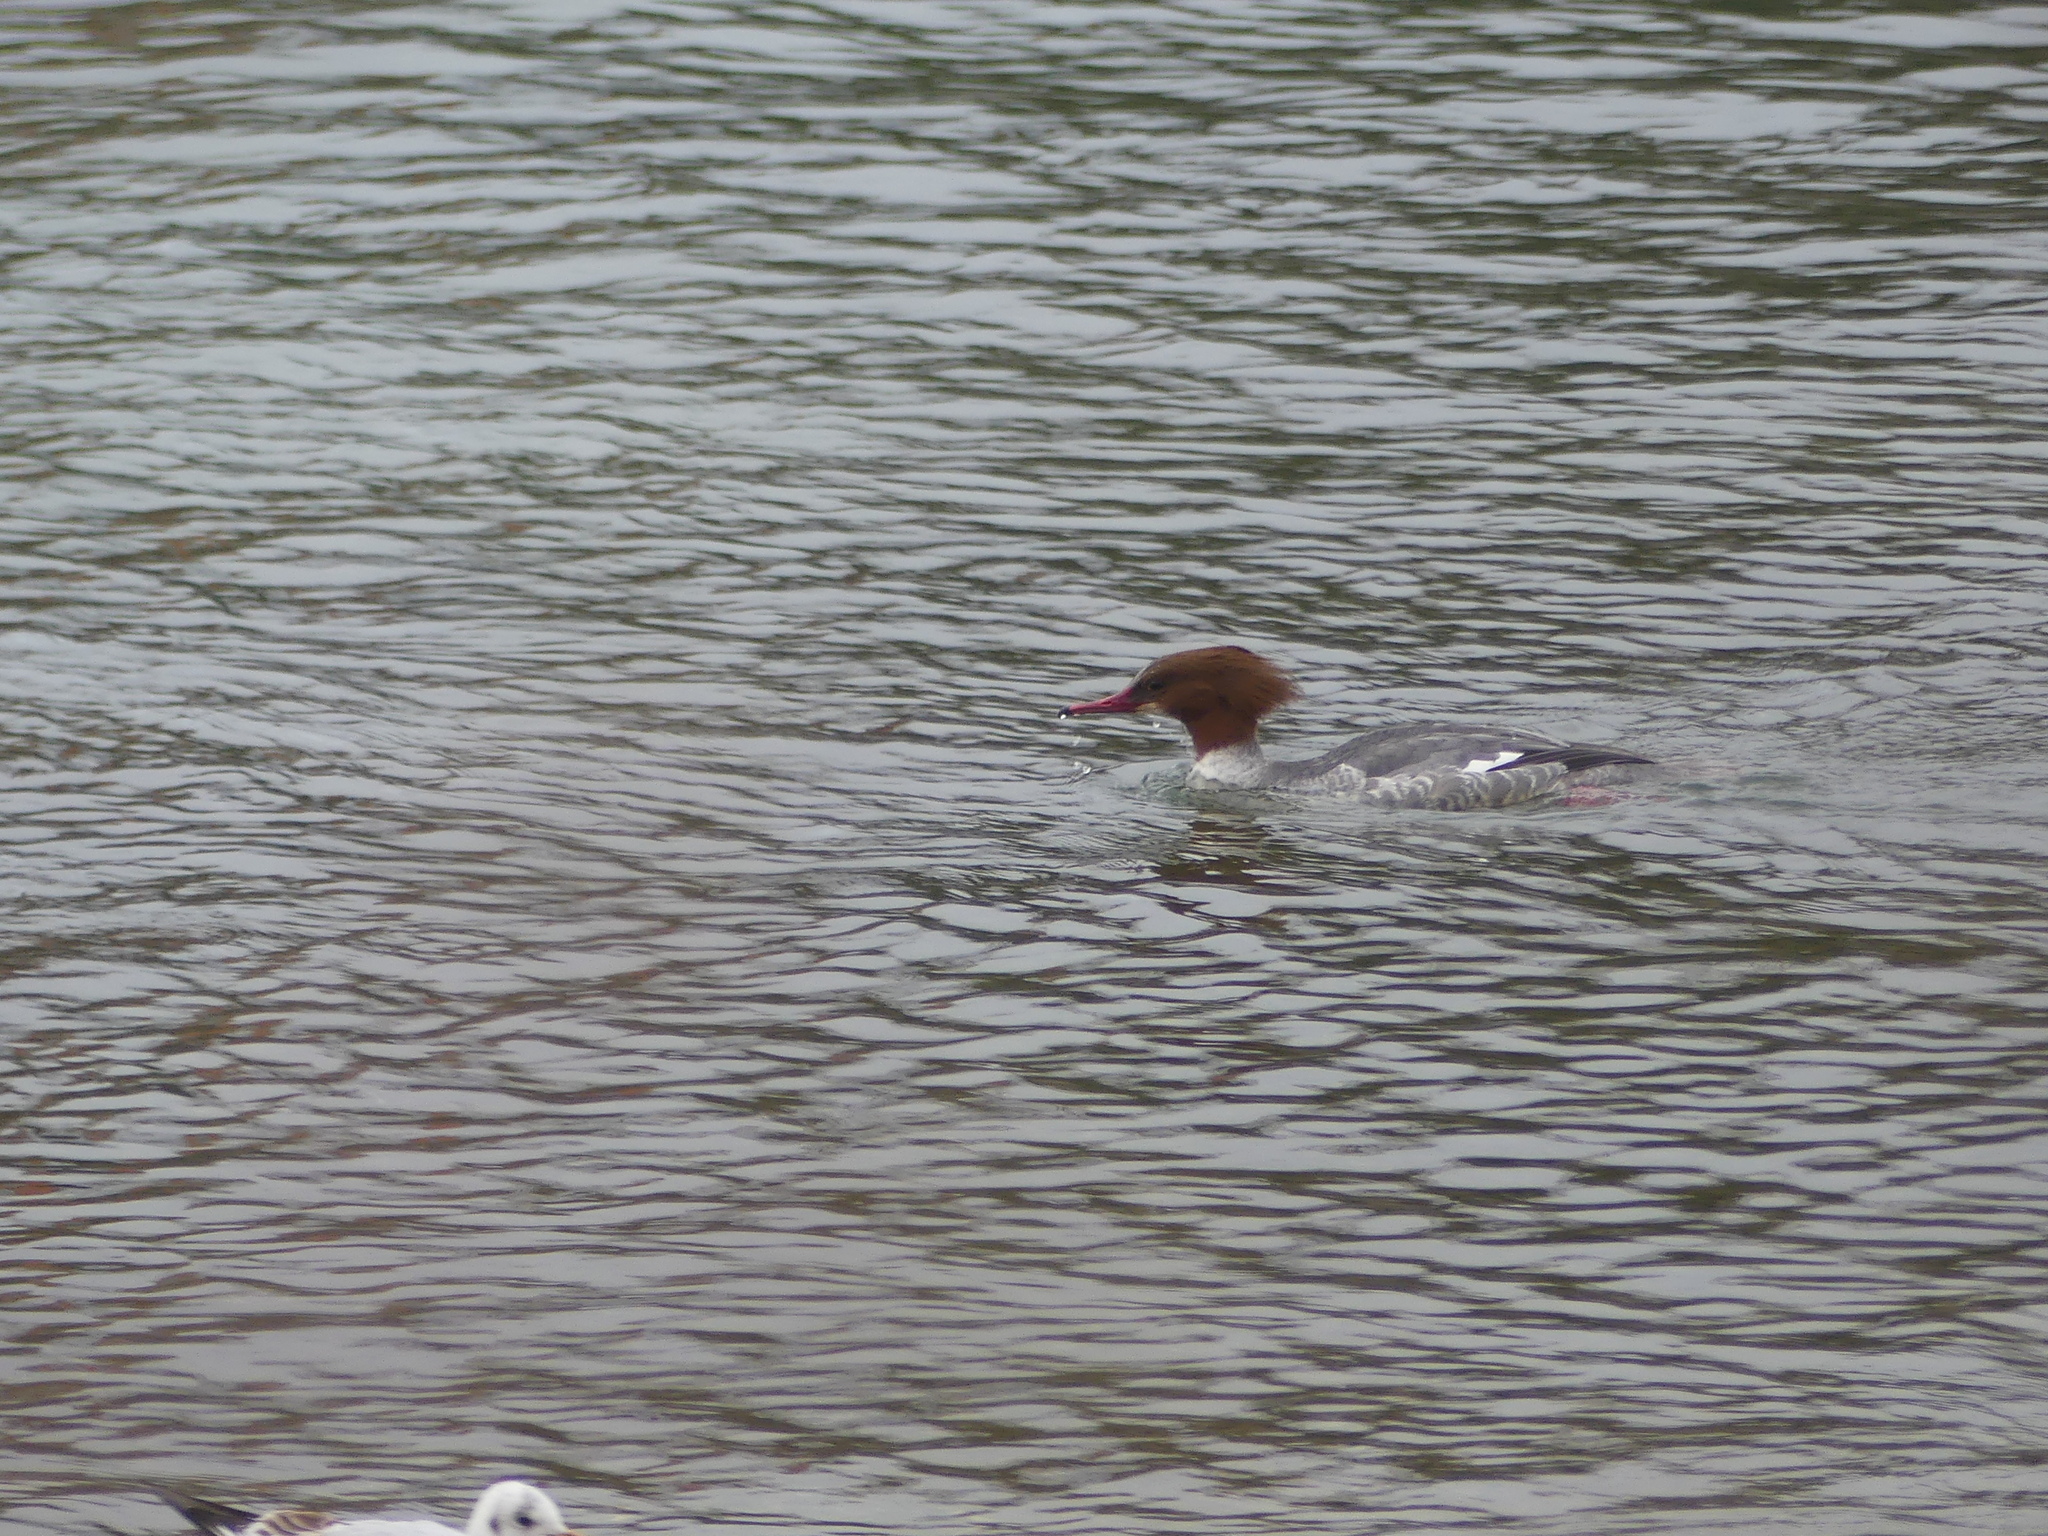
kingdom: Animalia
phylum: Chordata
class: Aves
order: Anseriformes
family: Anatidae
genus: Mergus
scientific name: Mergus merganser
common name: Common merganser
